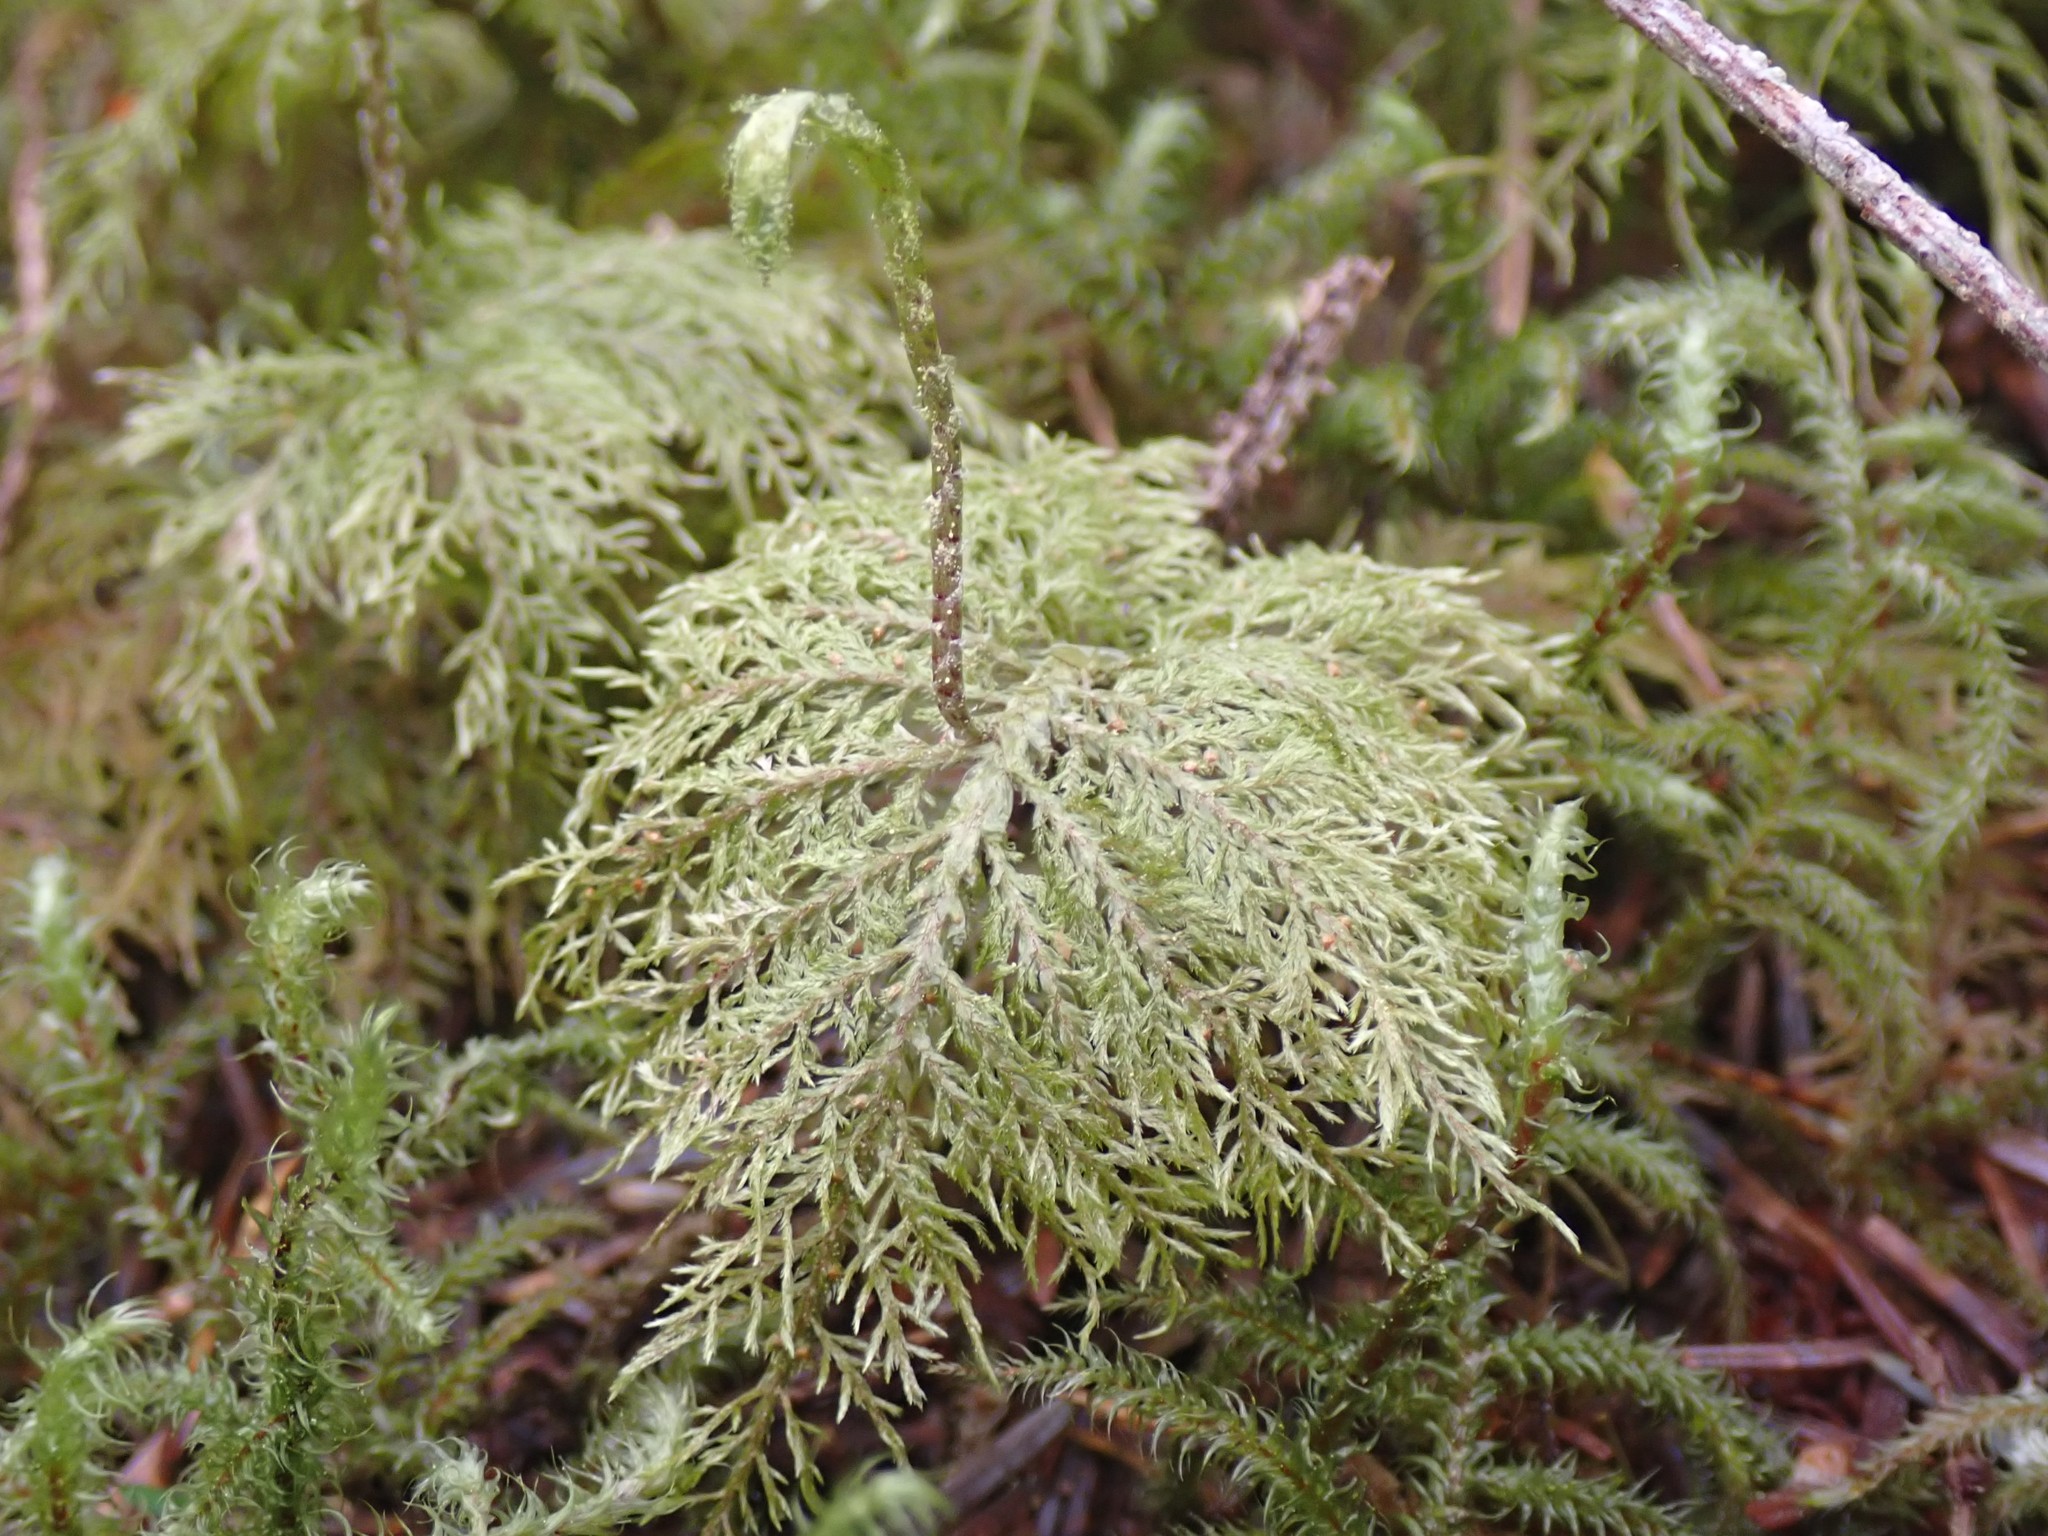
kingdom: Plantae
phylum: Bryophyta
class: Bryopsida
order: Hypnales
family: Hylocomiaceae
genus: Hylocomium
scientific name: Hylocomium splendens
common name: Stairstep moss
